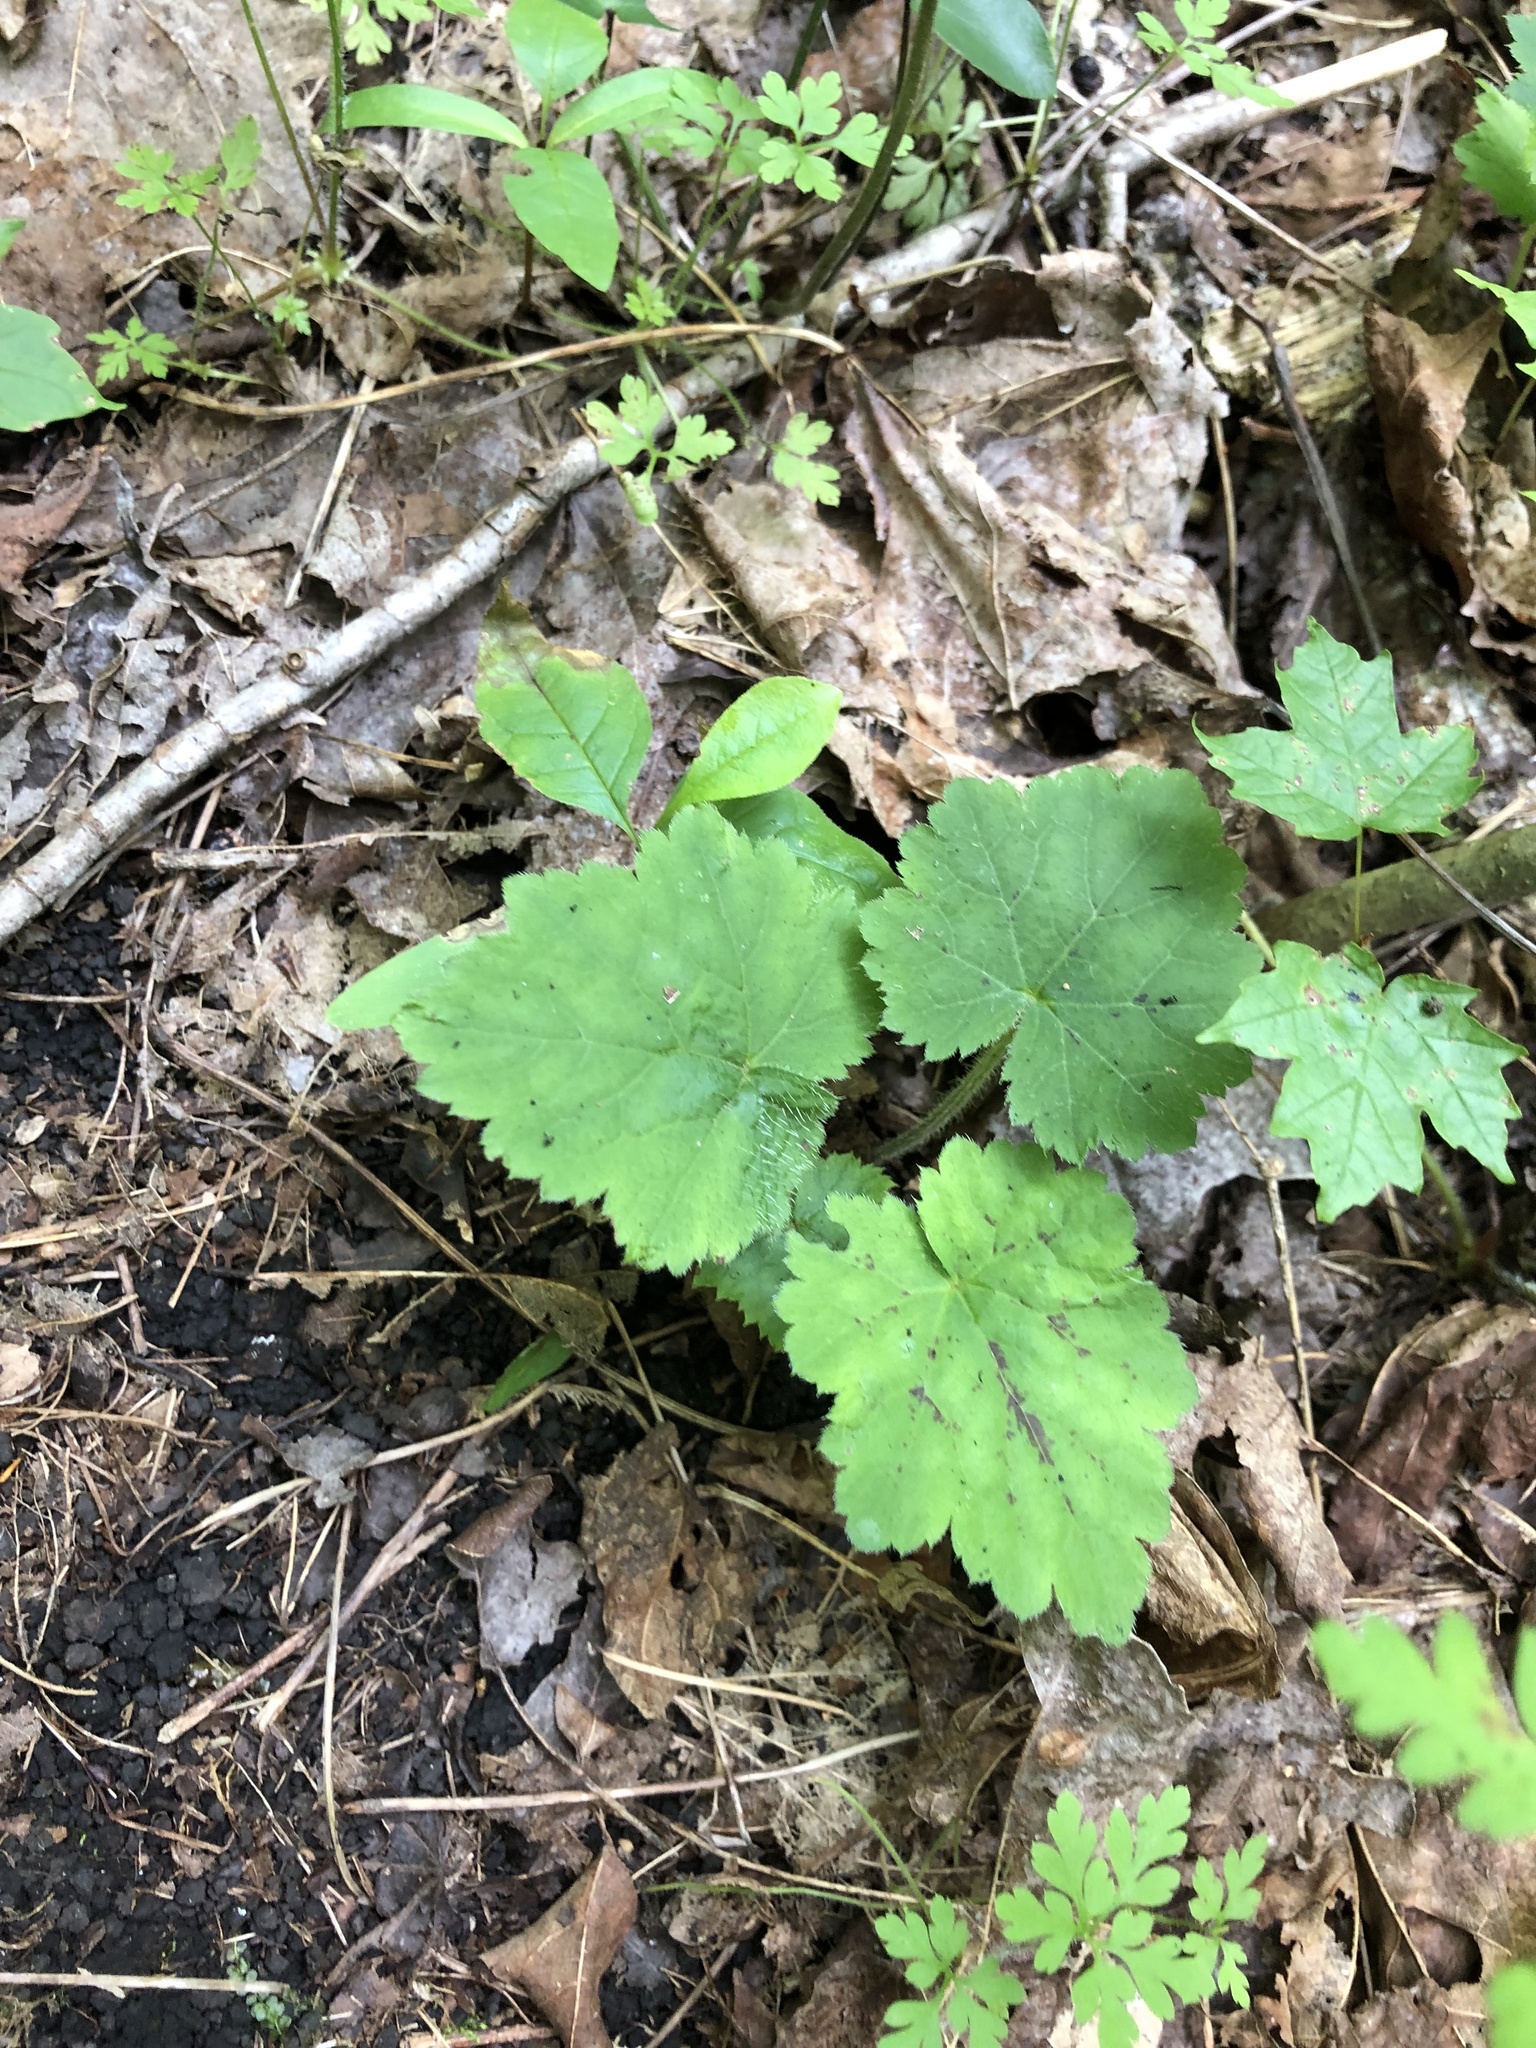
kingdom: Plantae
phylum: Tracheophyta
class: Magnoliopsida
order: Saxifragales
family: Saxifragaceae
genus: Tiarella
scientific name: Tiarella stolonifera
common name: Stoloniferous foamflower
